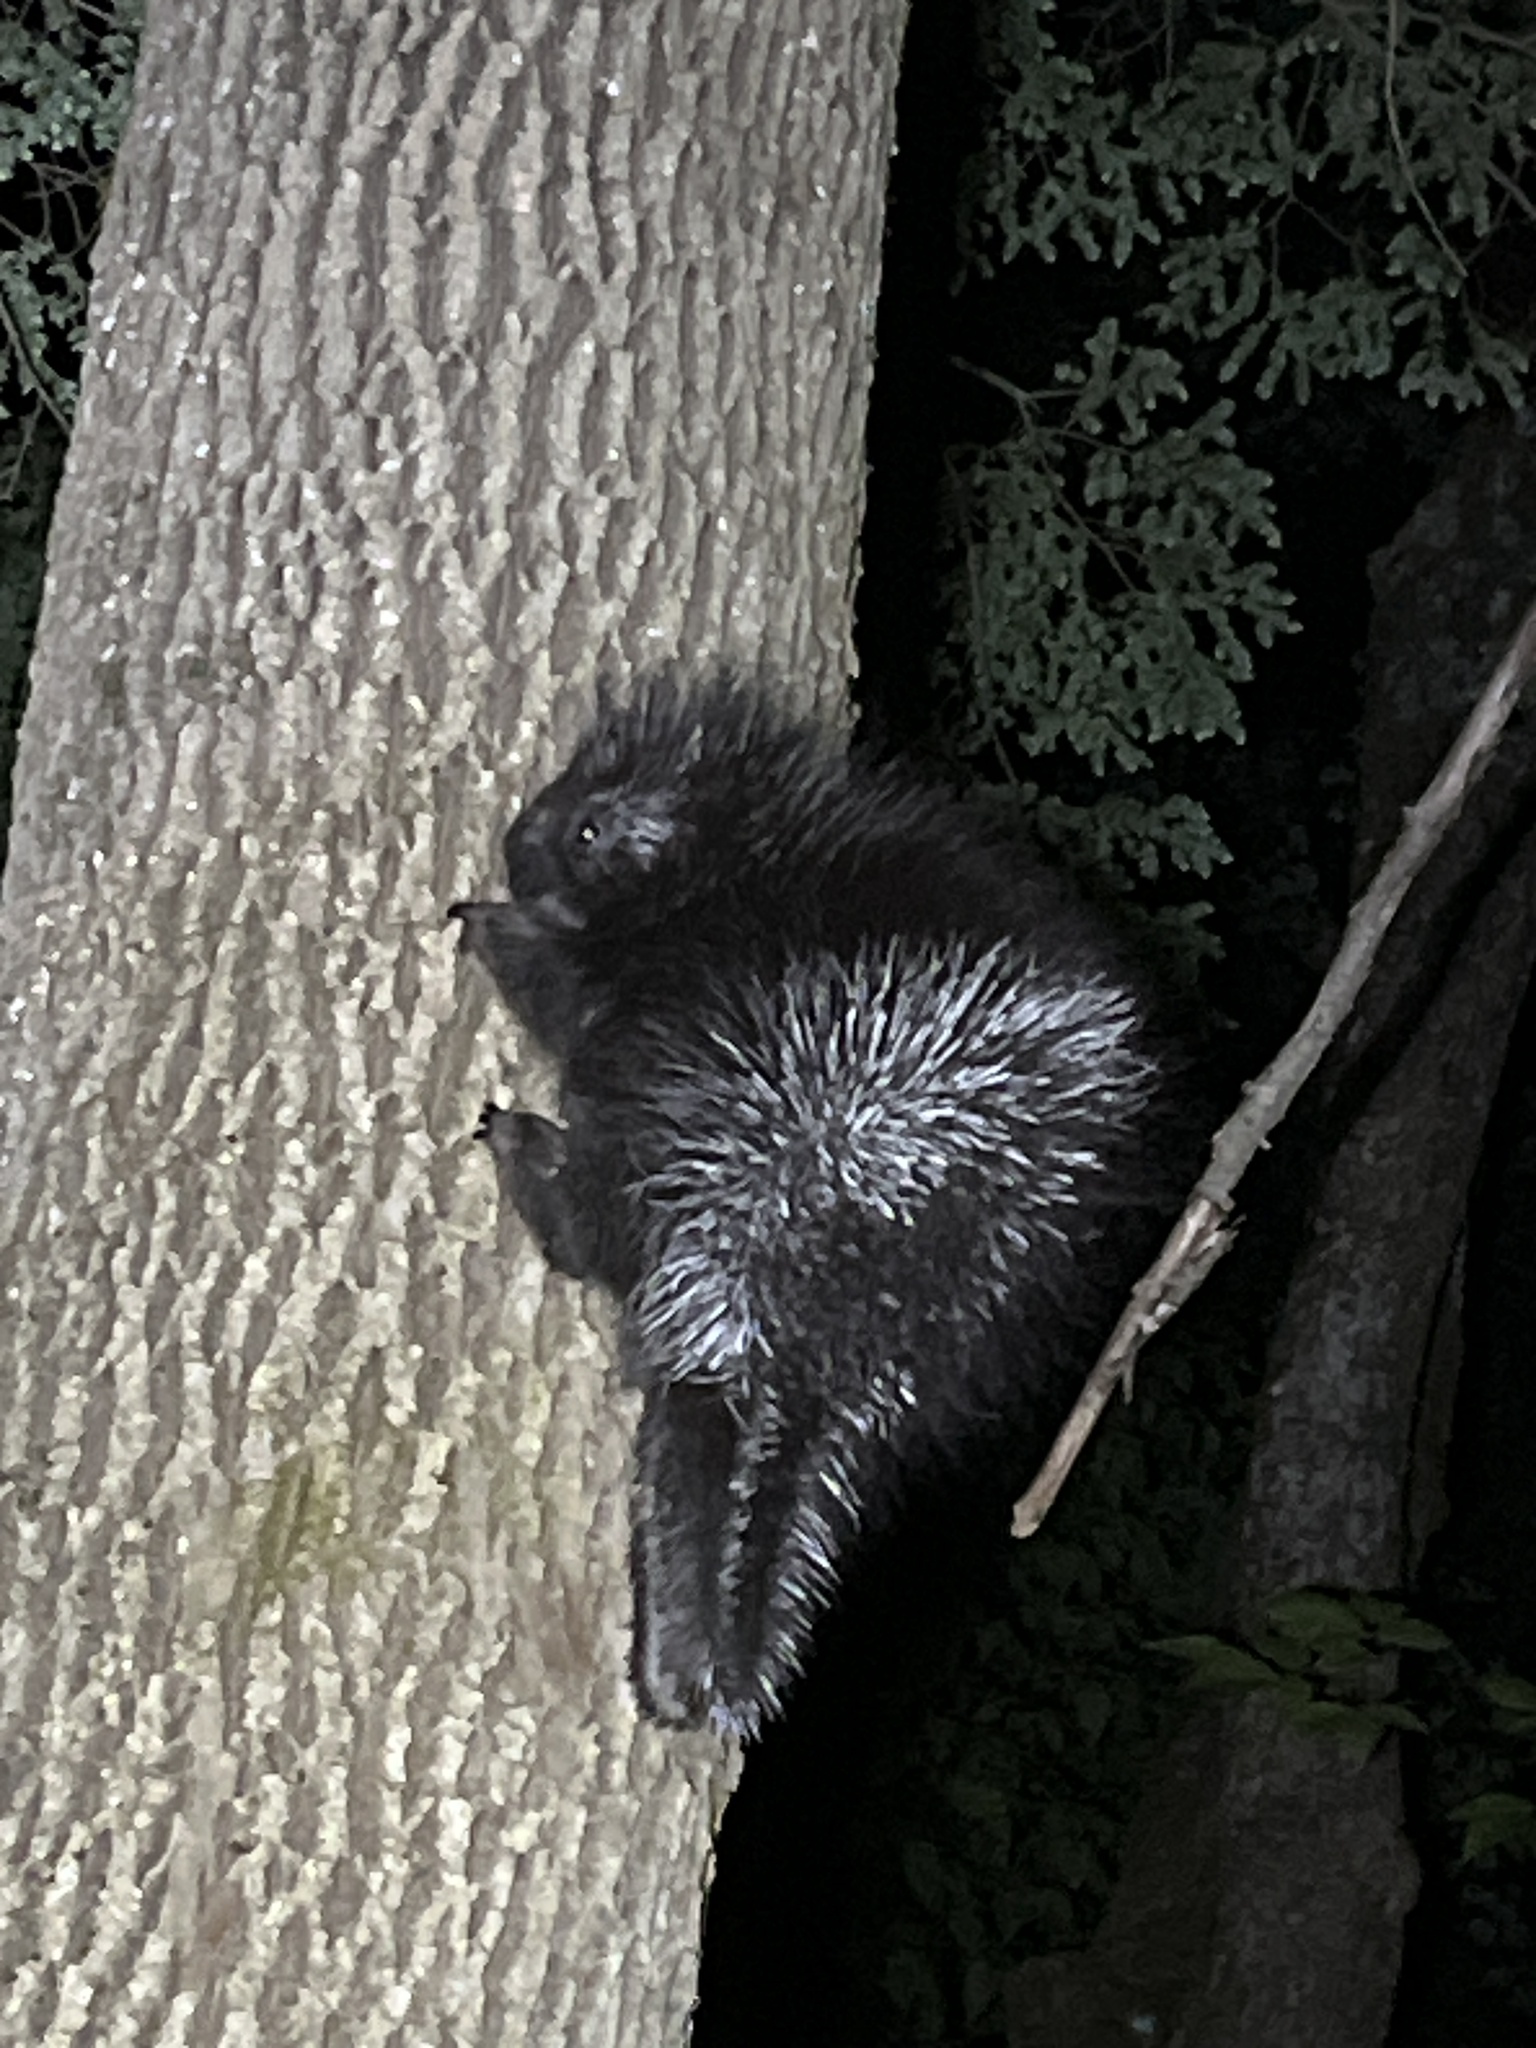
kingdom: Animalia
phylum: Chordata
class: Mammalia
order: Rodentia
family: Erethizontidae
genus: Erethizon
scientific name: Erethizon dorsatus
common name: North american porcupine
